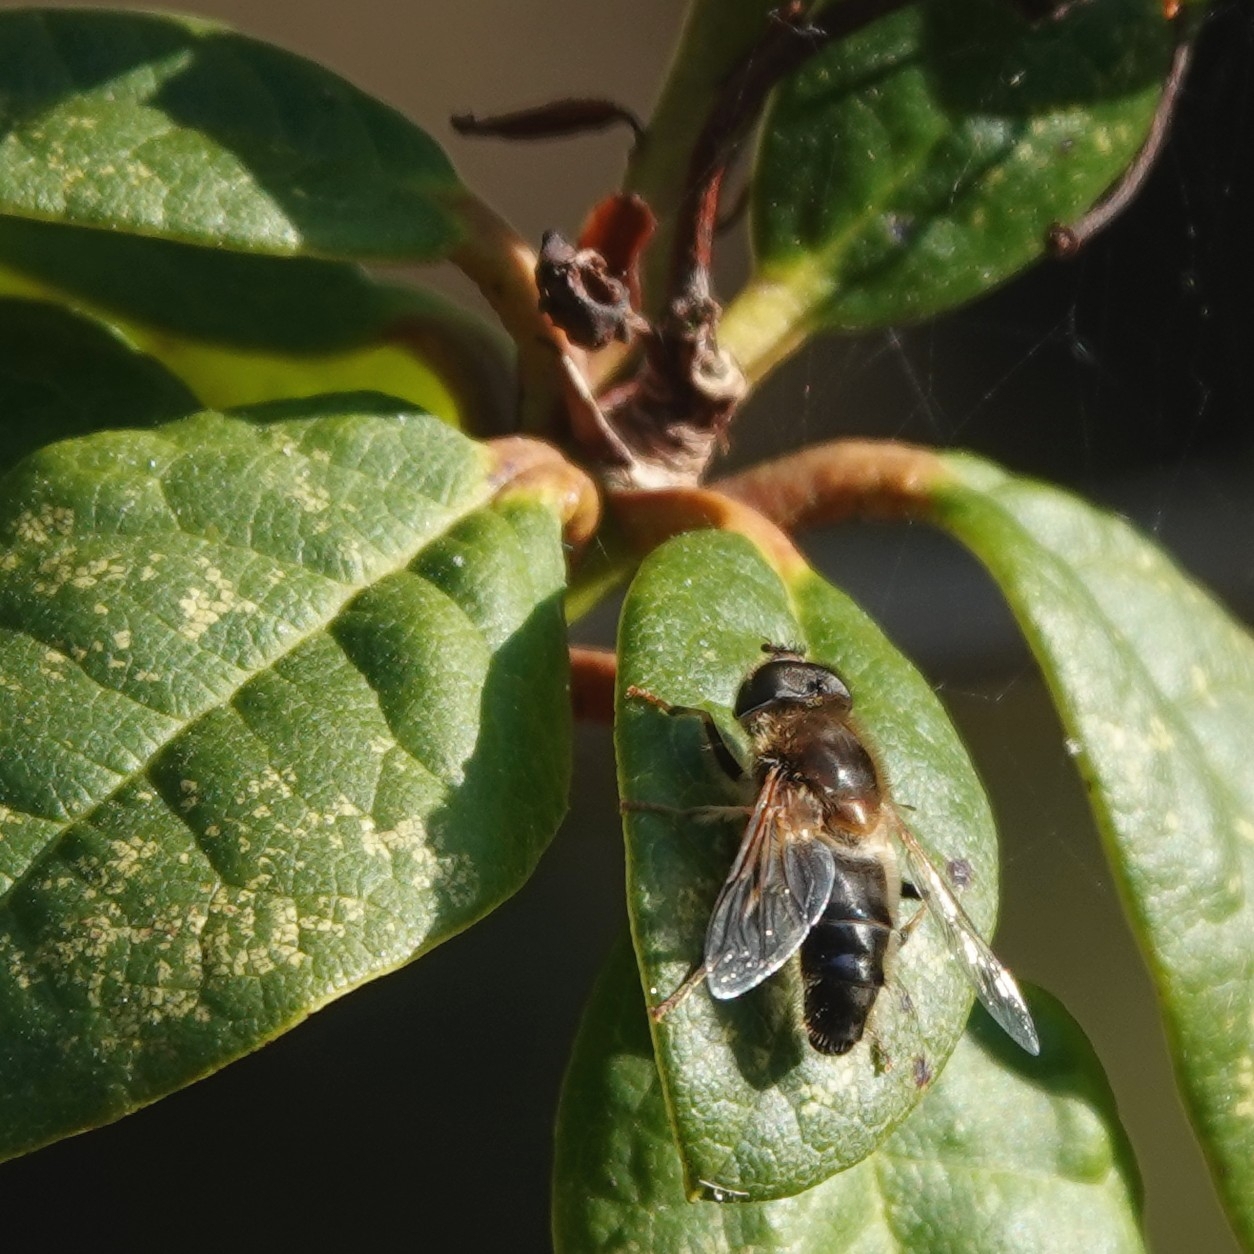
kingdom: Animalia
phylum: Arthropoda
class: Insecta
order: Diptera
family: Syrphidae
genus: Eristalis
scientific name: Eristalis pertinax
